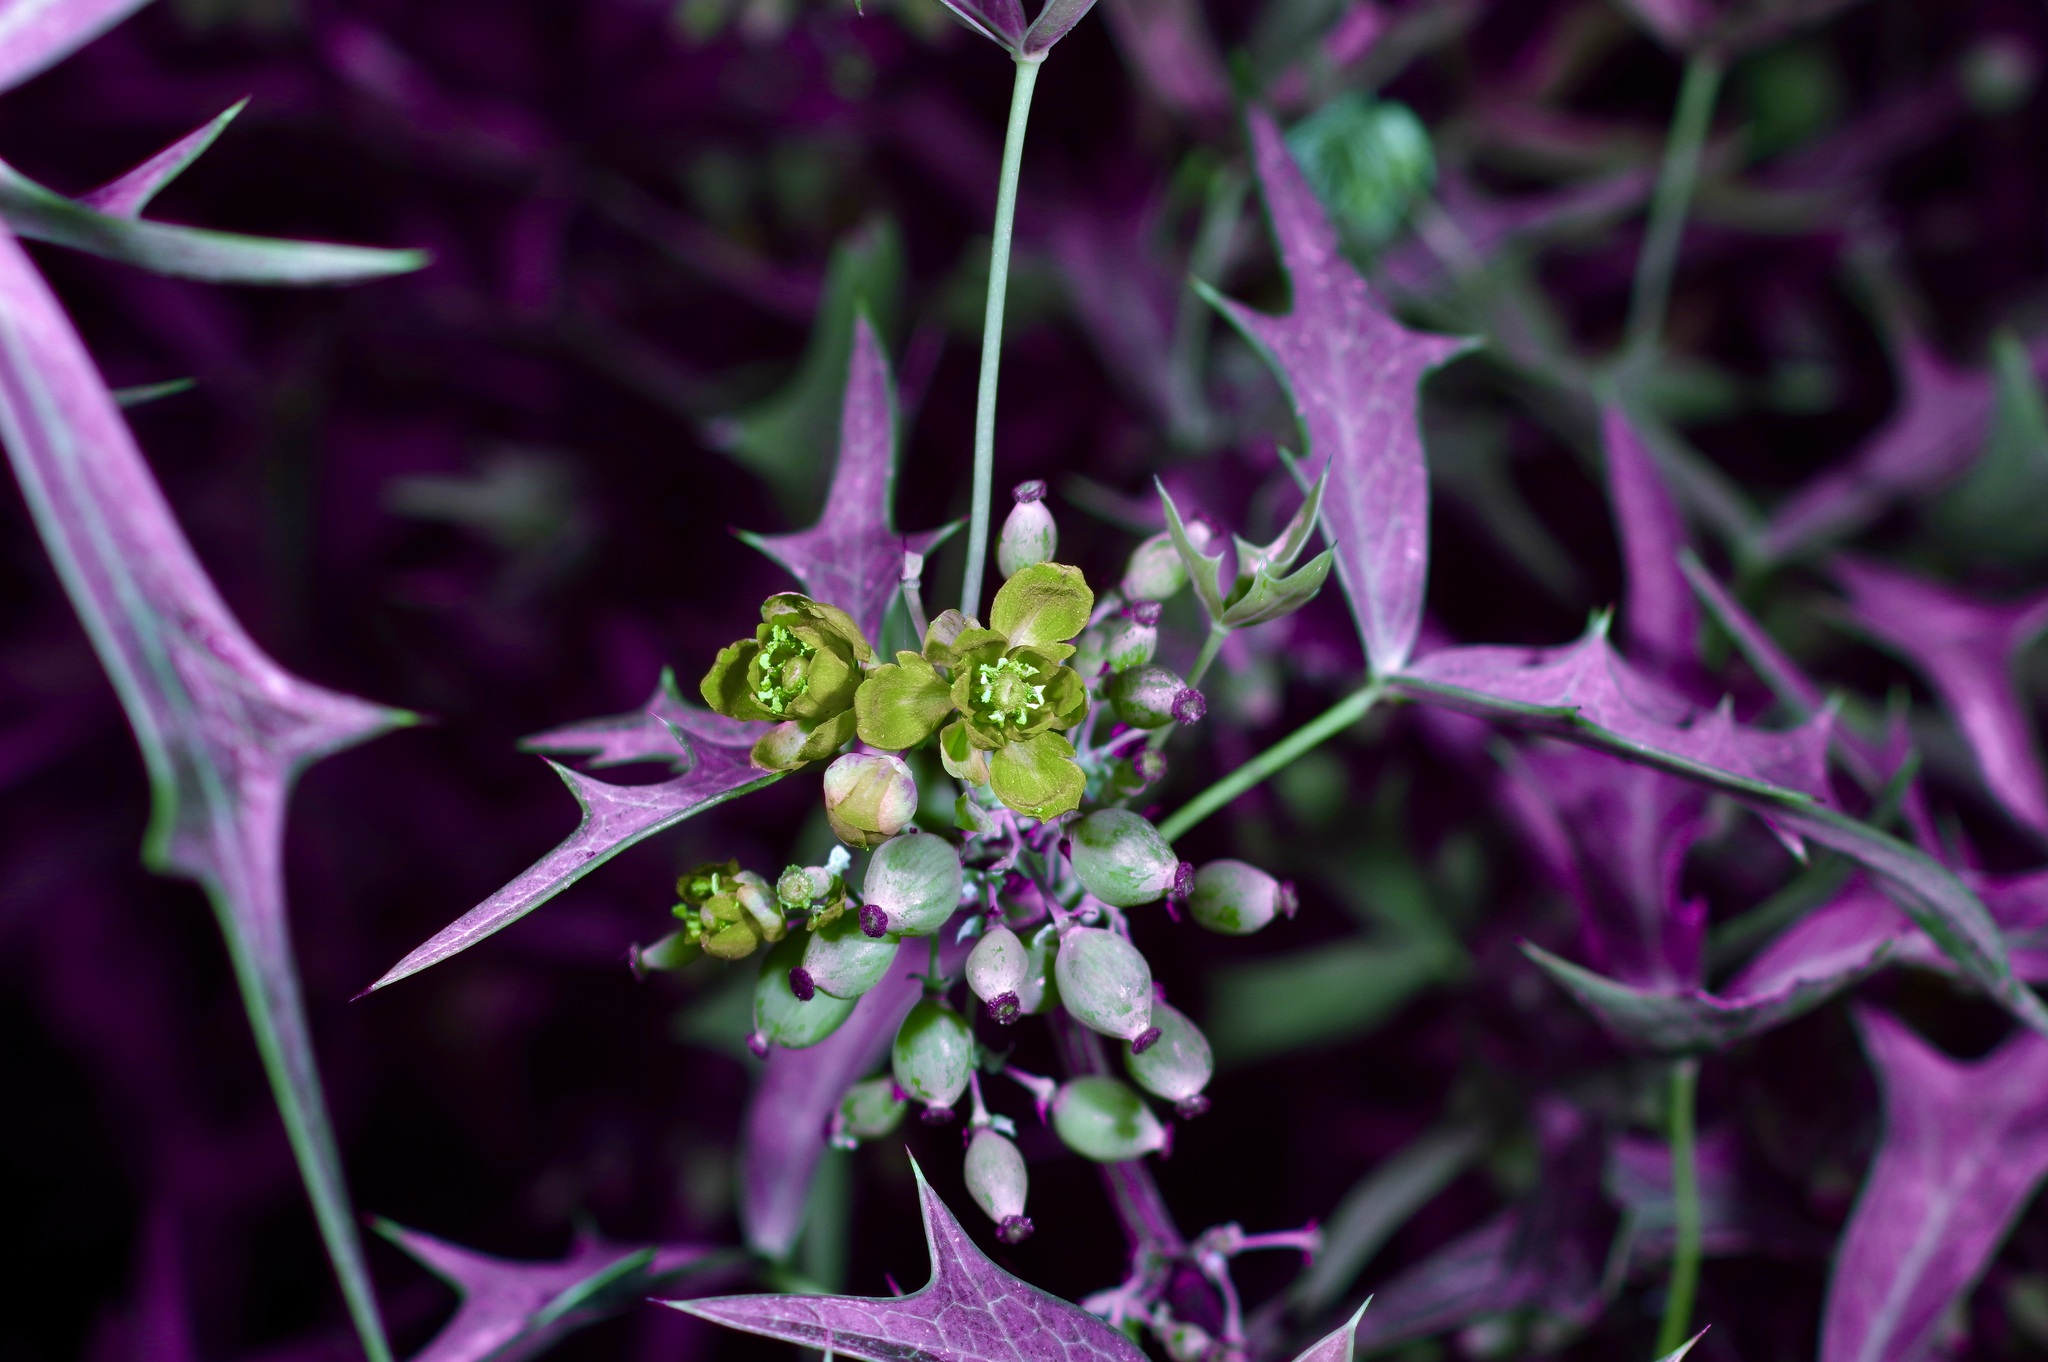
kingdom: Plantae
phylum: Tracheophyta
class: Magnoliopsida
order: Ranunculales
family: Berberidaceae
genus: Alloberberis
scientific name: Alloberberis trifoliolata
